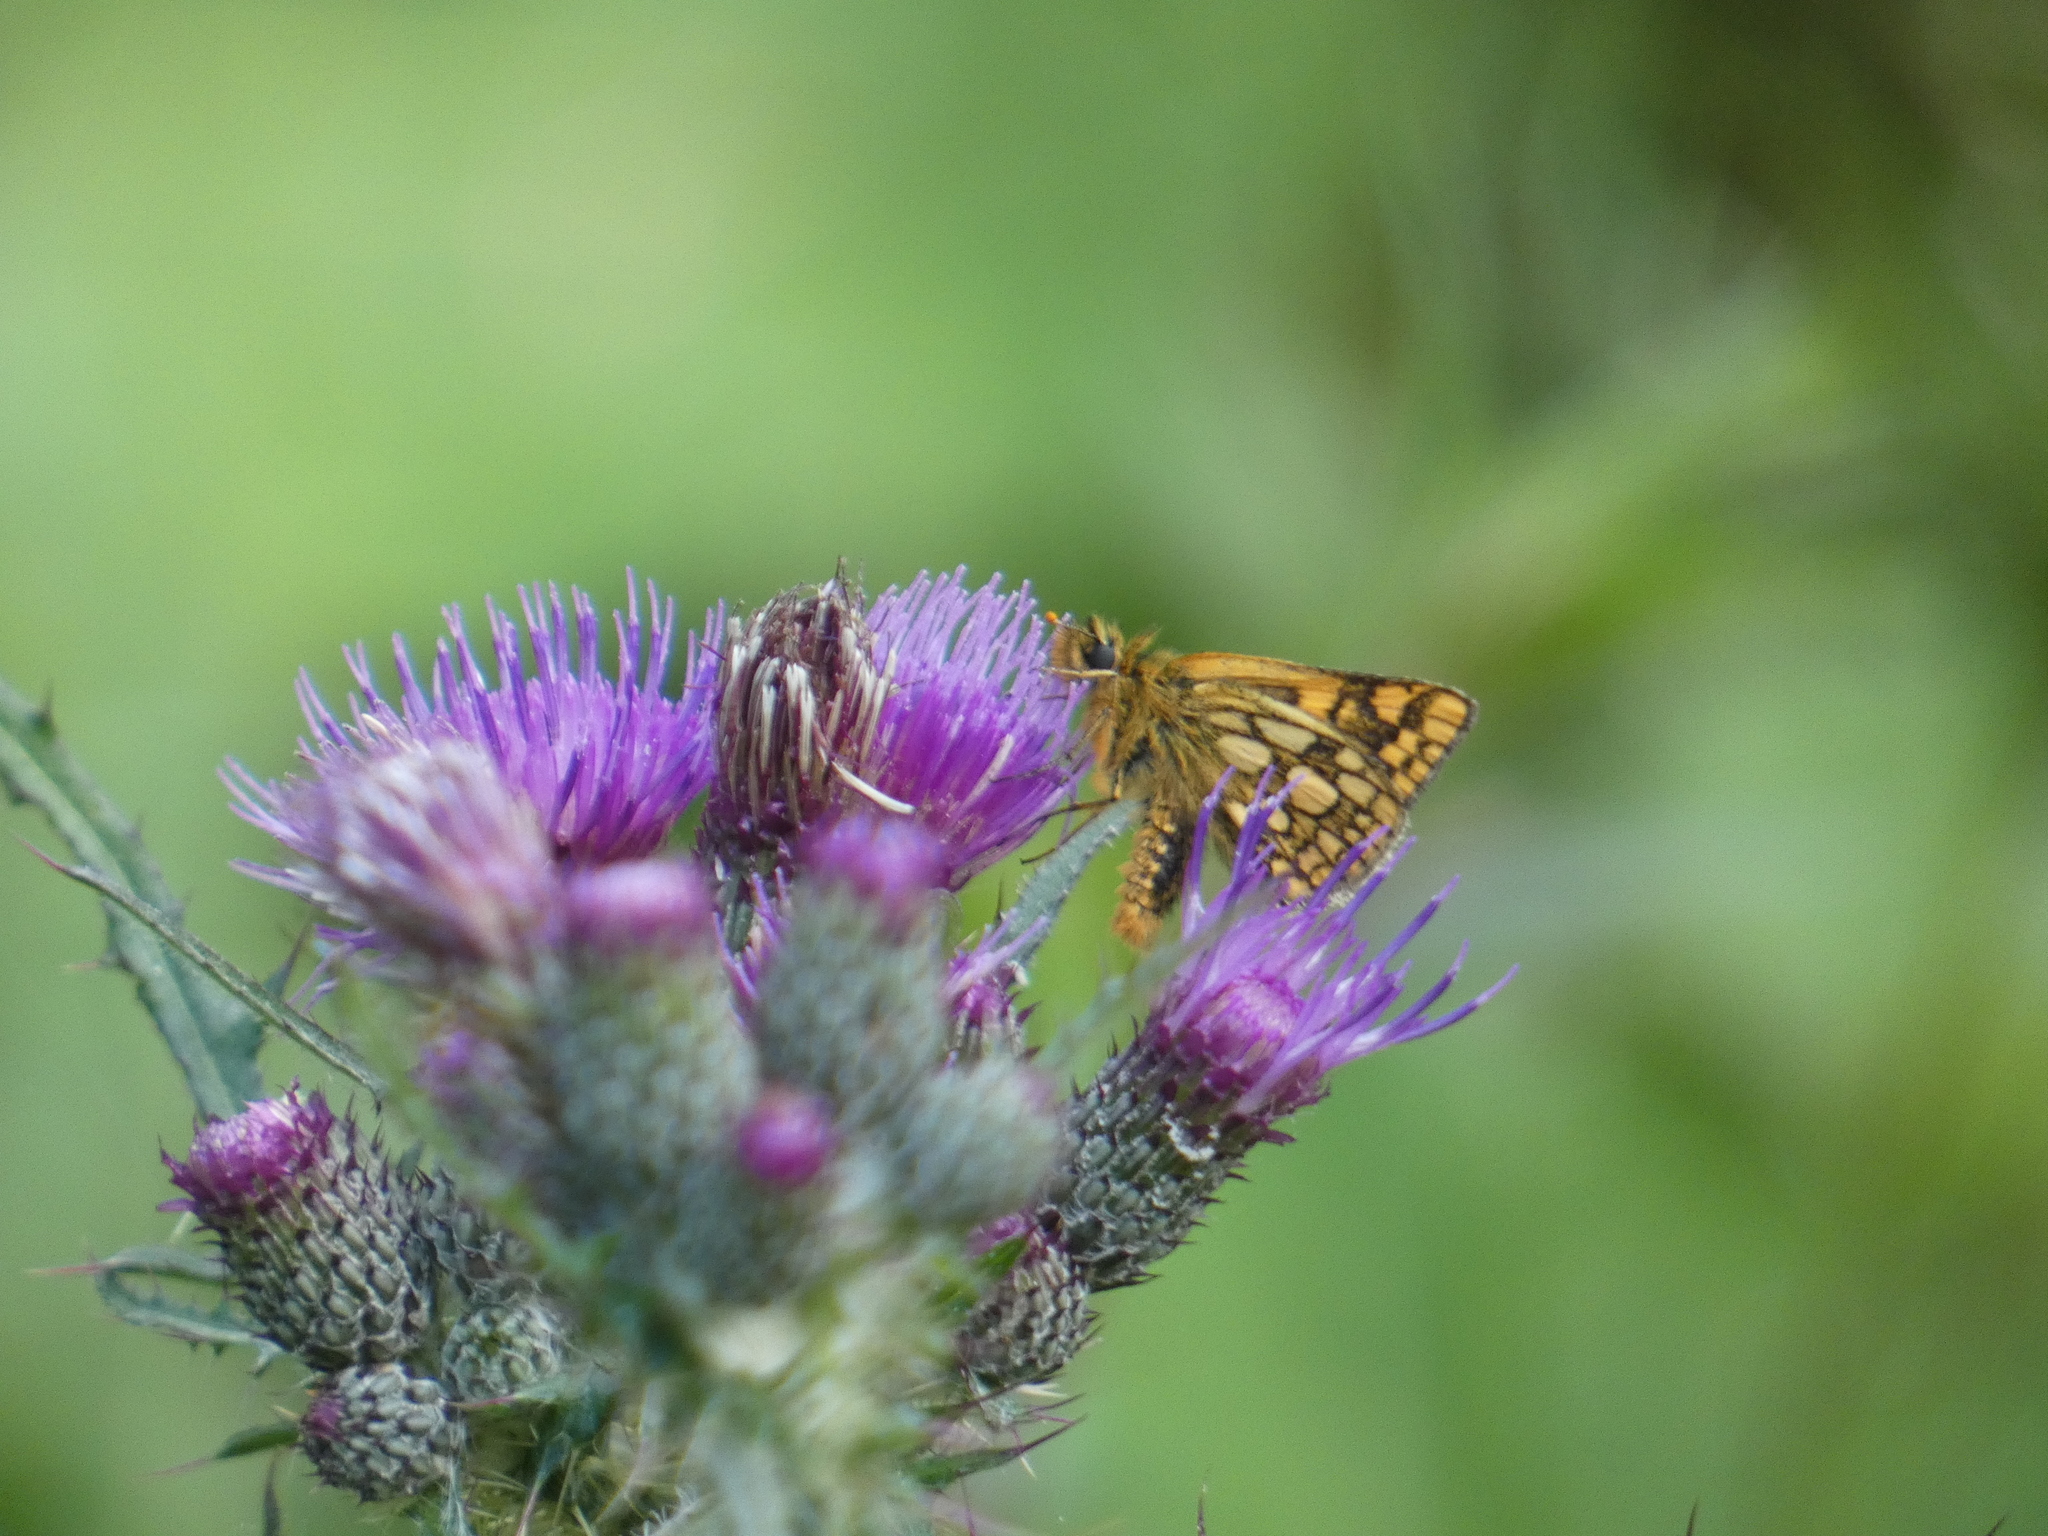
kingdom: Animalia
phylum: Arthropoda
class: Insecta
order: Lepidoptera
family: Hesperiidae
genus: Carterocephalus
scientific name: Carterocephalus palaemon
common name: Chequered skipper
